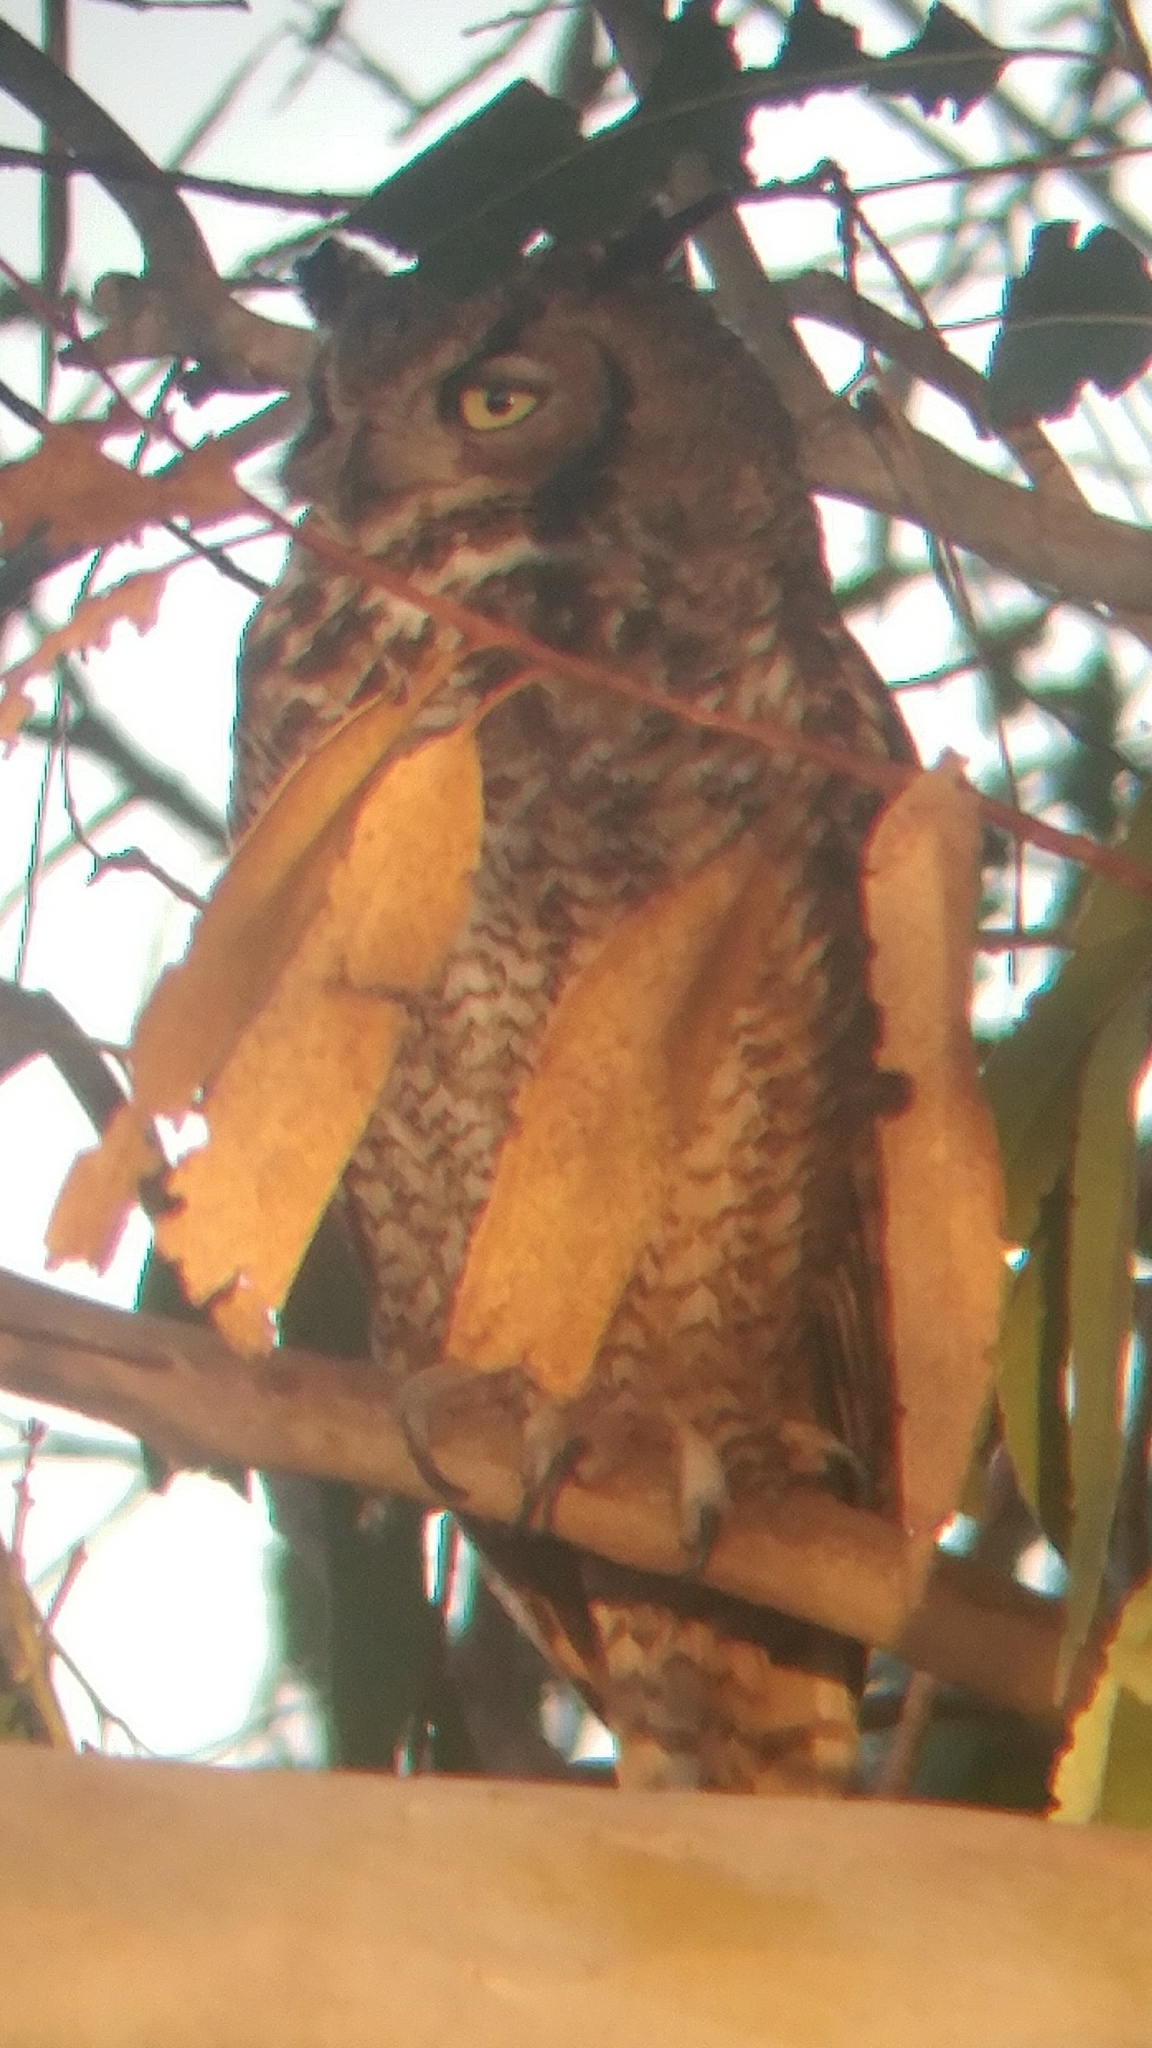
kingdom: Animalia
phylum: Chordata
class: Aves
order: Strigiformes
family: Strigidae
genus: Bubo
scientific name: Bubo virginianus
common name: Great horned owl
